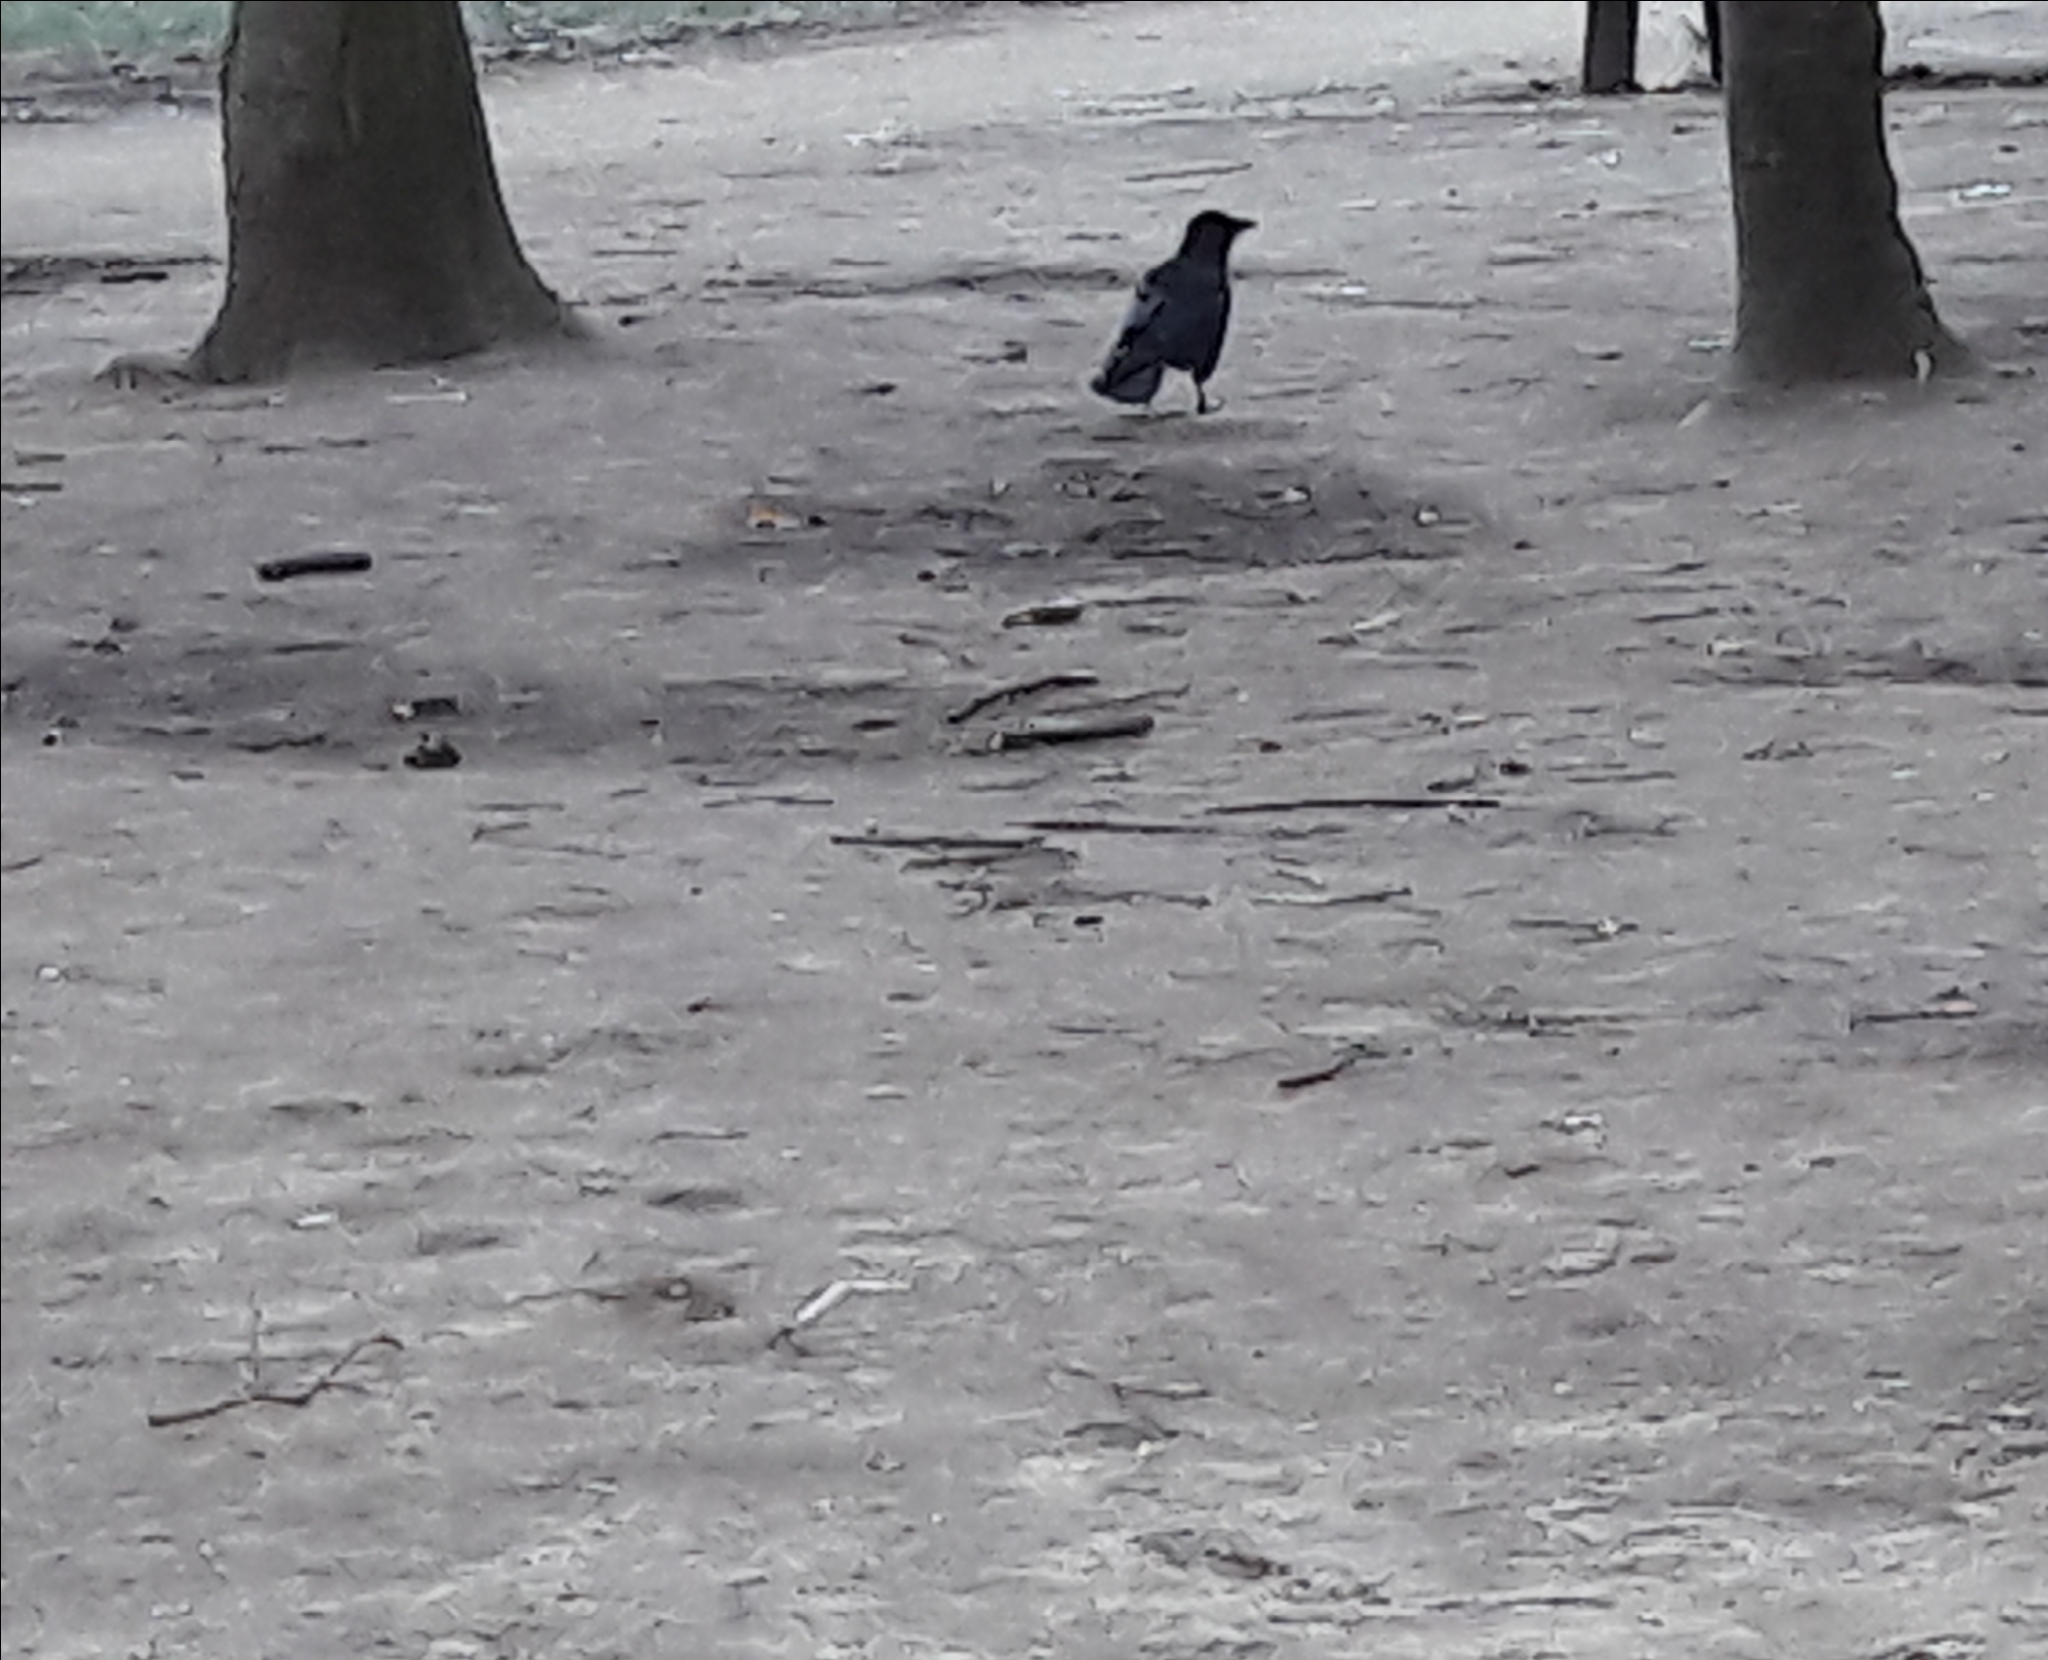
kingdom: Animalia
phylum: Chordata
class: Aves
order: Passeriformes
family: Corvidae
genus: Corvus
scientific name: Corvus corone
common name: Carrion crow
